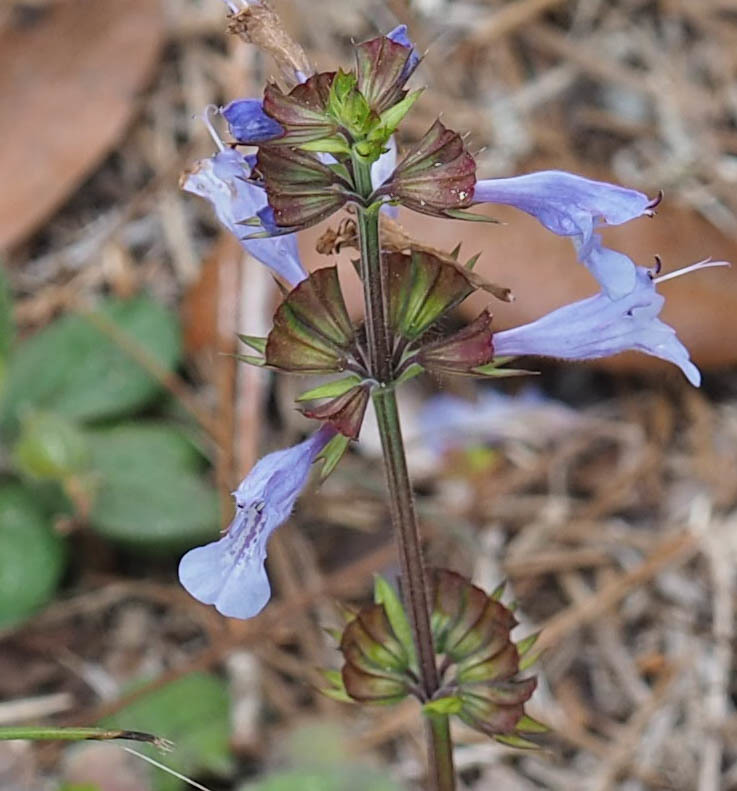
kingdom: Plantae
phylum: Tracheophyta
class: Magnoliopsida
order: Lamiales
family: Lamiaceae
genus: Salvia
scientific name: Salvia lyrata
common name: Cancerweed
